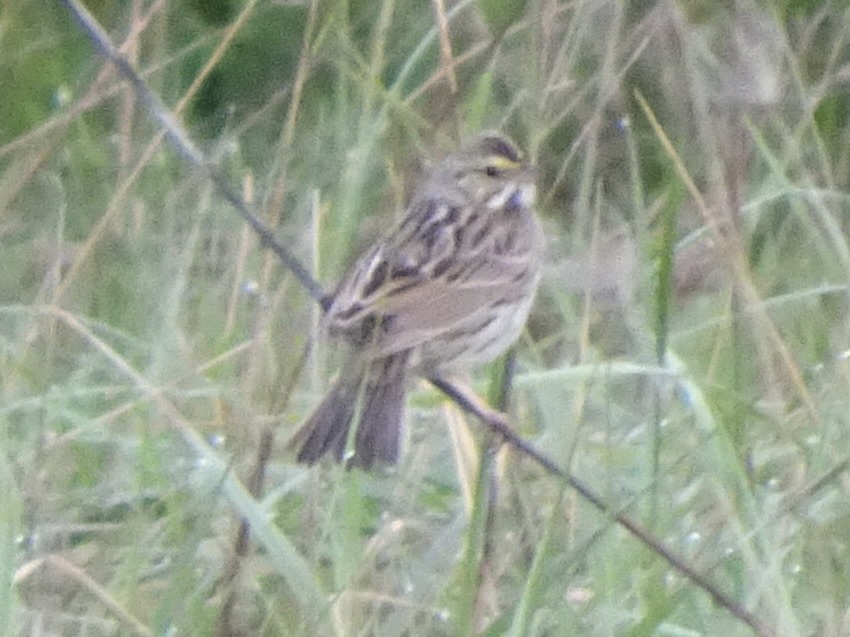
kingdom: Animalia
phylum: Chordata
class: Aves
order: Passeriformes
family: Passerellidae
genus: Passerculus
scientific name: Passerculus sandwichensis
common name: Savannah sparrow
